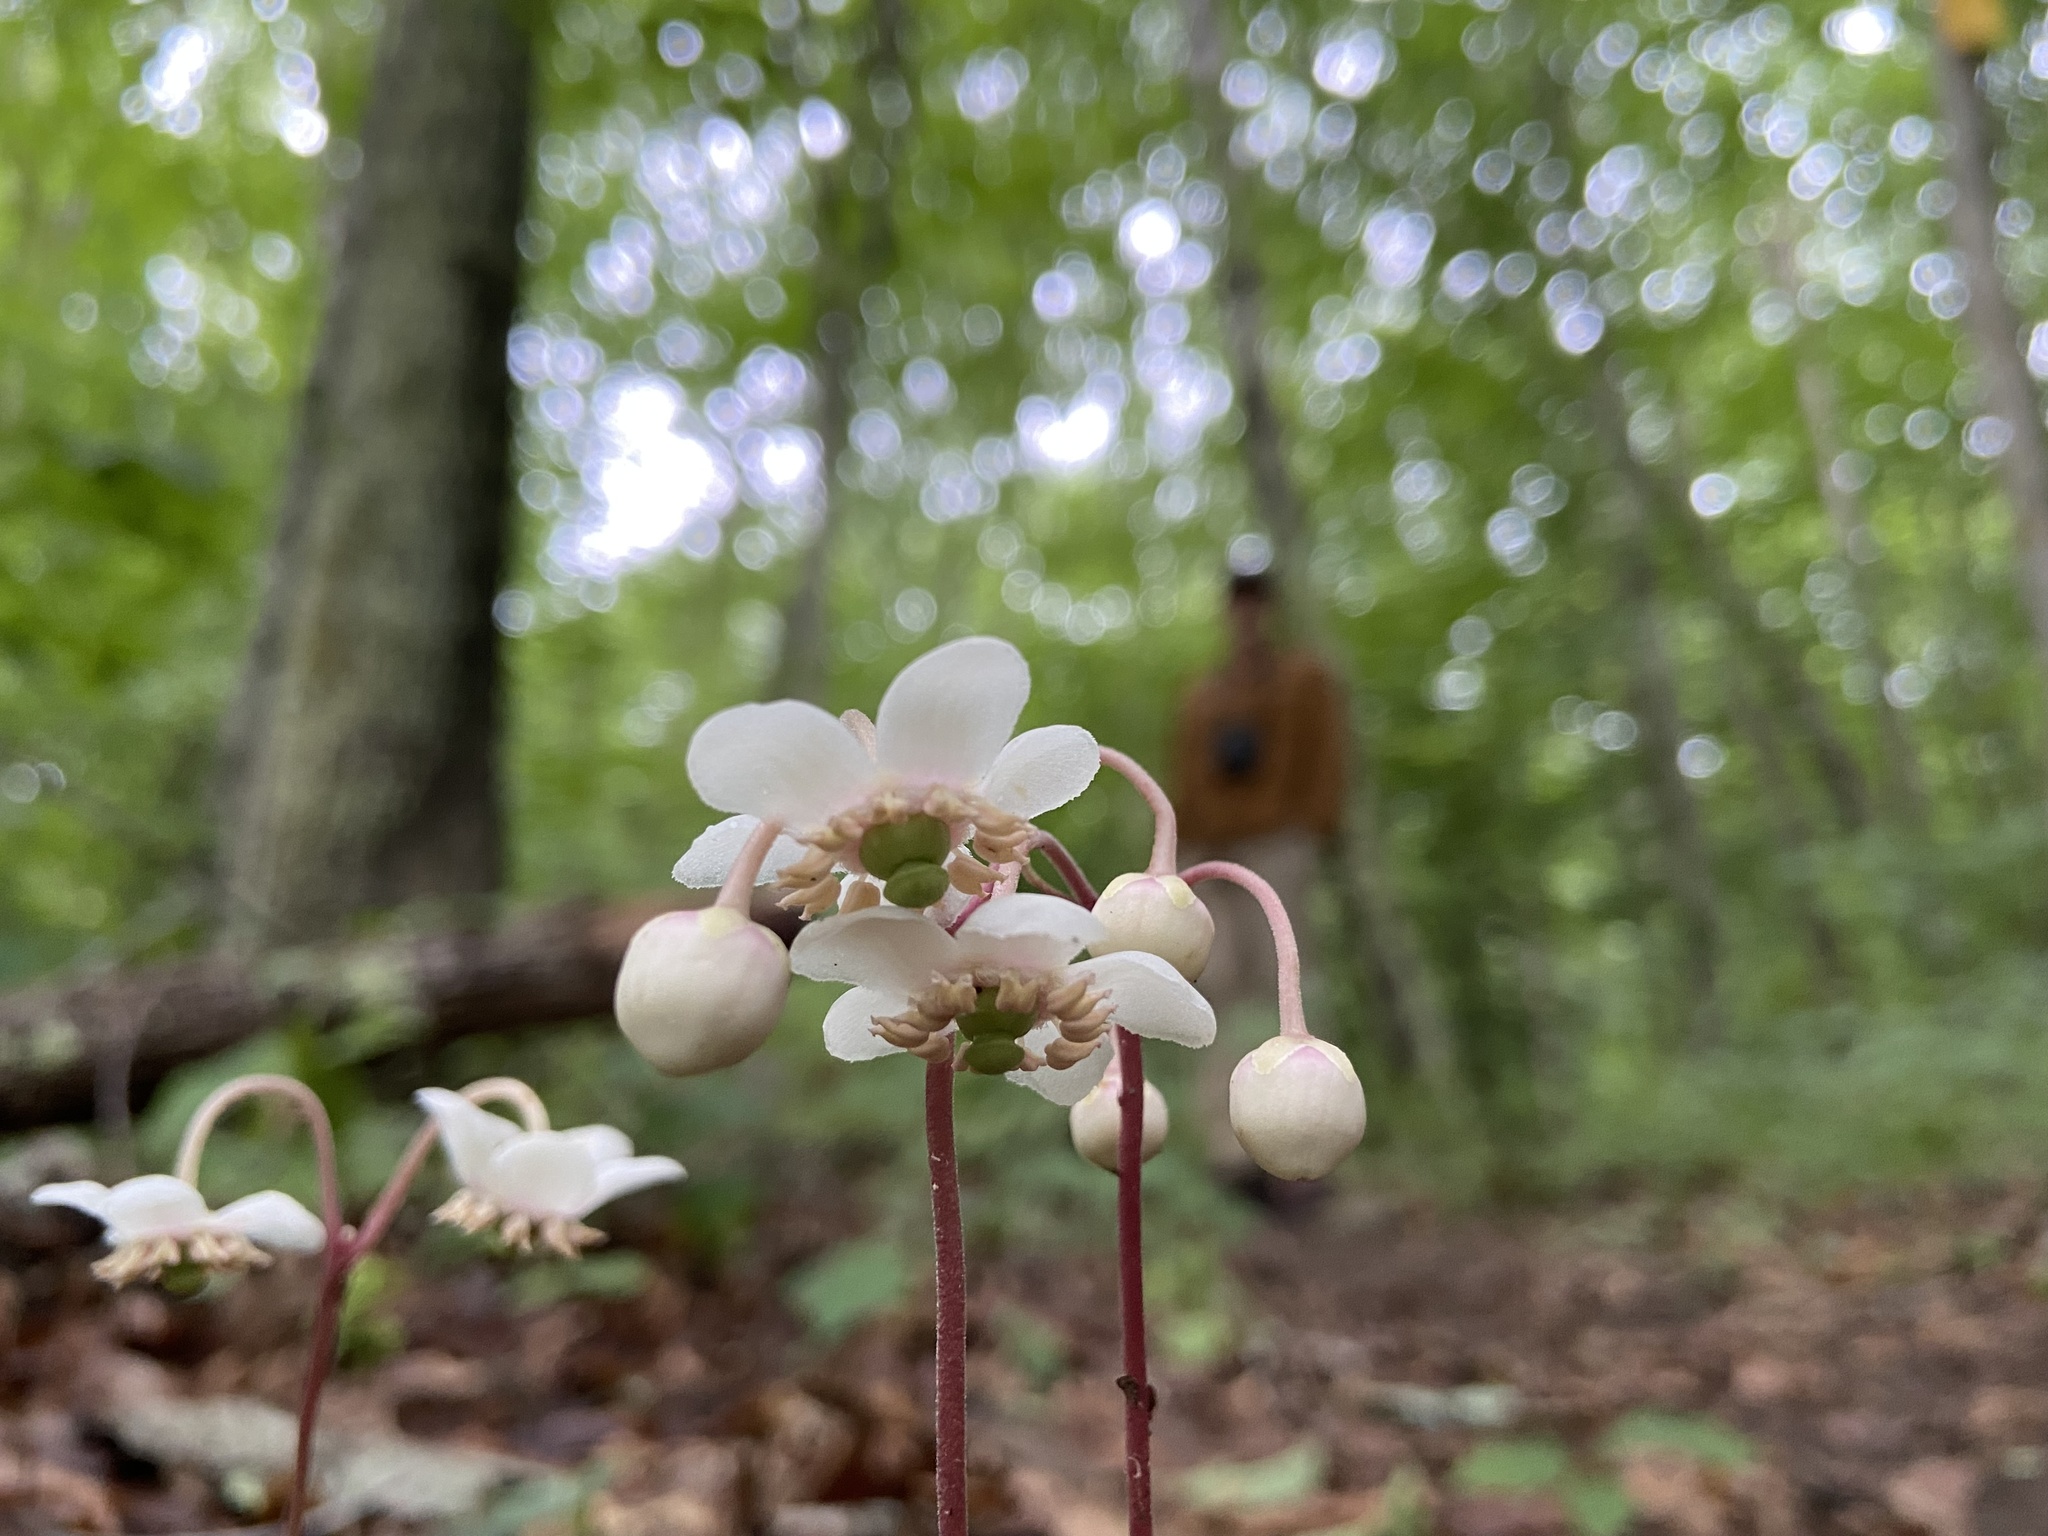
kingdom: Plantae
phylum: Tracheophyta
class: Magnoliopsida
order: Ericales
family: Ericaceae
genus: Chimaphila
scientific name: Chimaphila maculata
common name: Spotted pipsissewa
